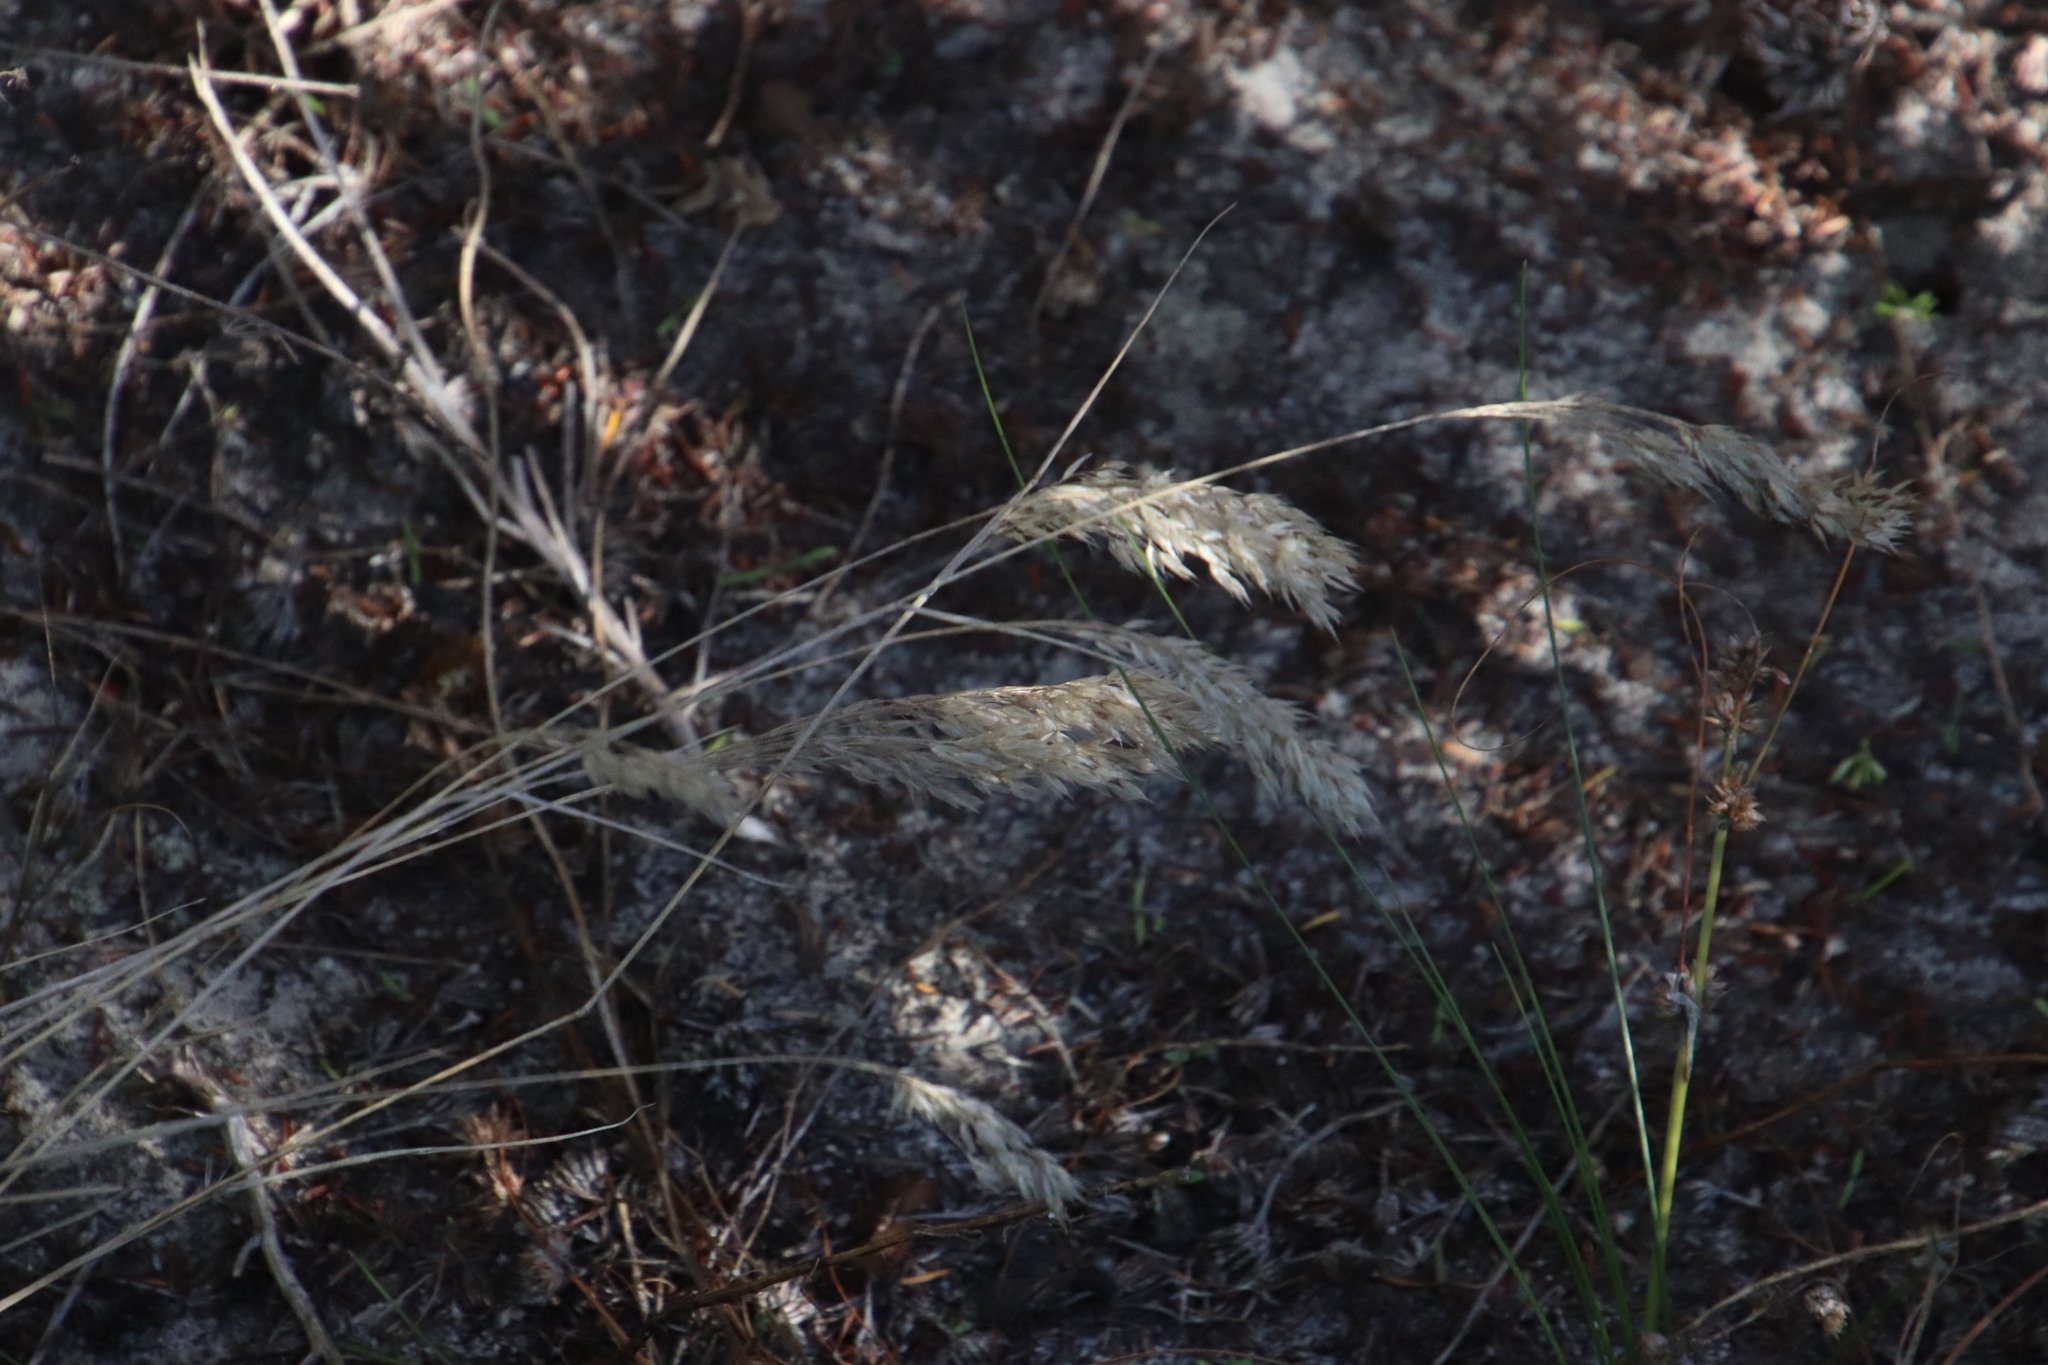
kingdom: Plantae
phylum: Tracheophyta
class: Liliopsida
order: Poales
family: Poaceae
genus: Pentameris
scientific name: Pentameris pallida
